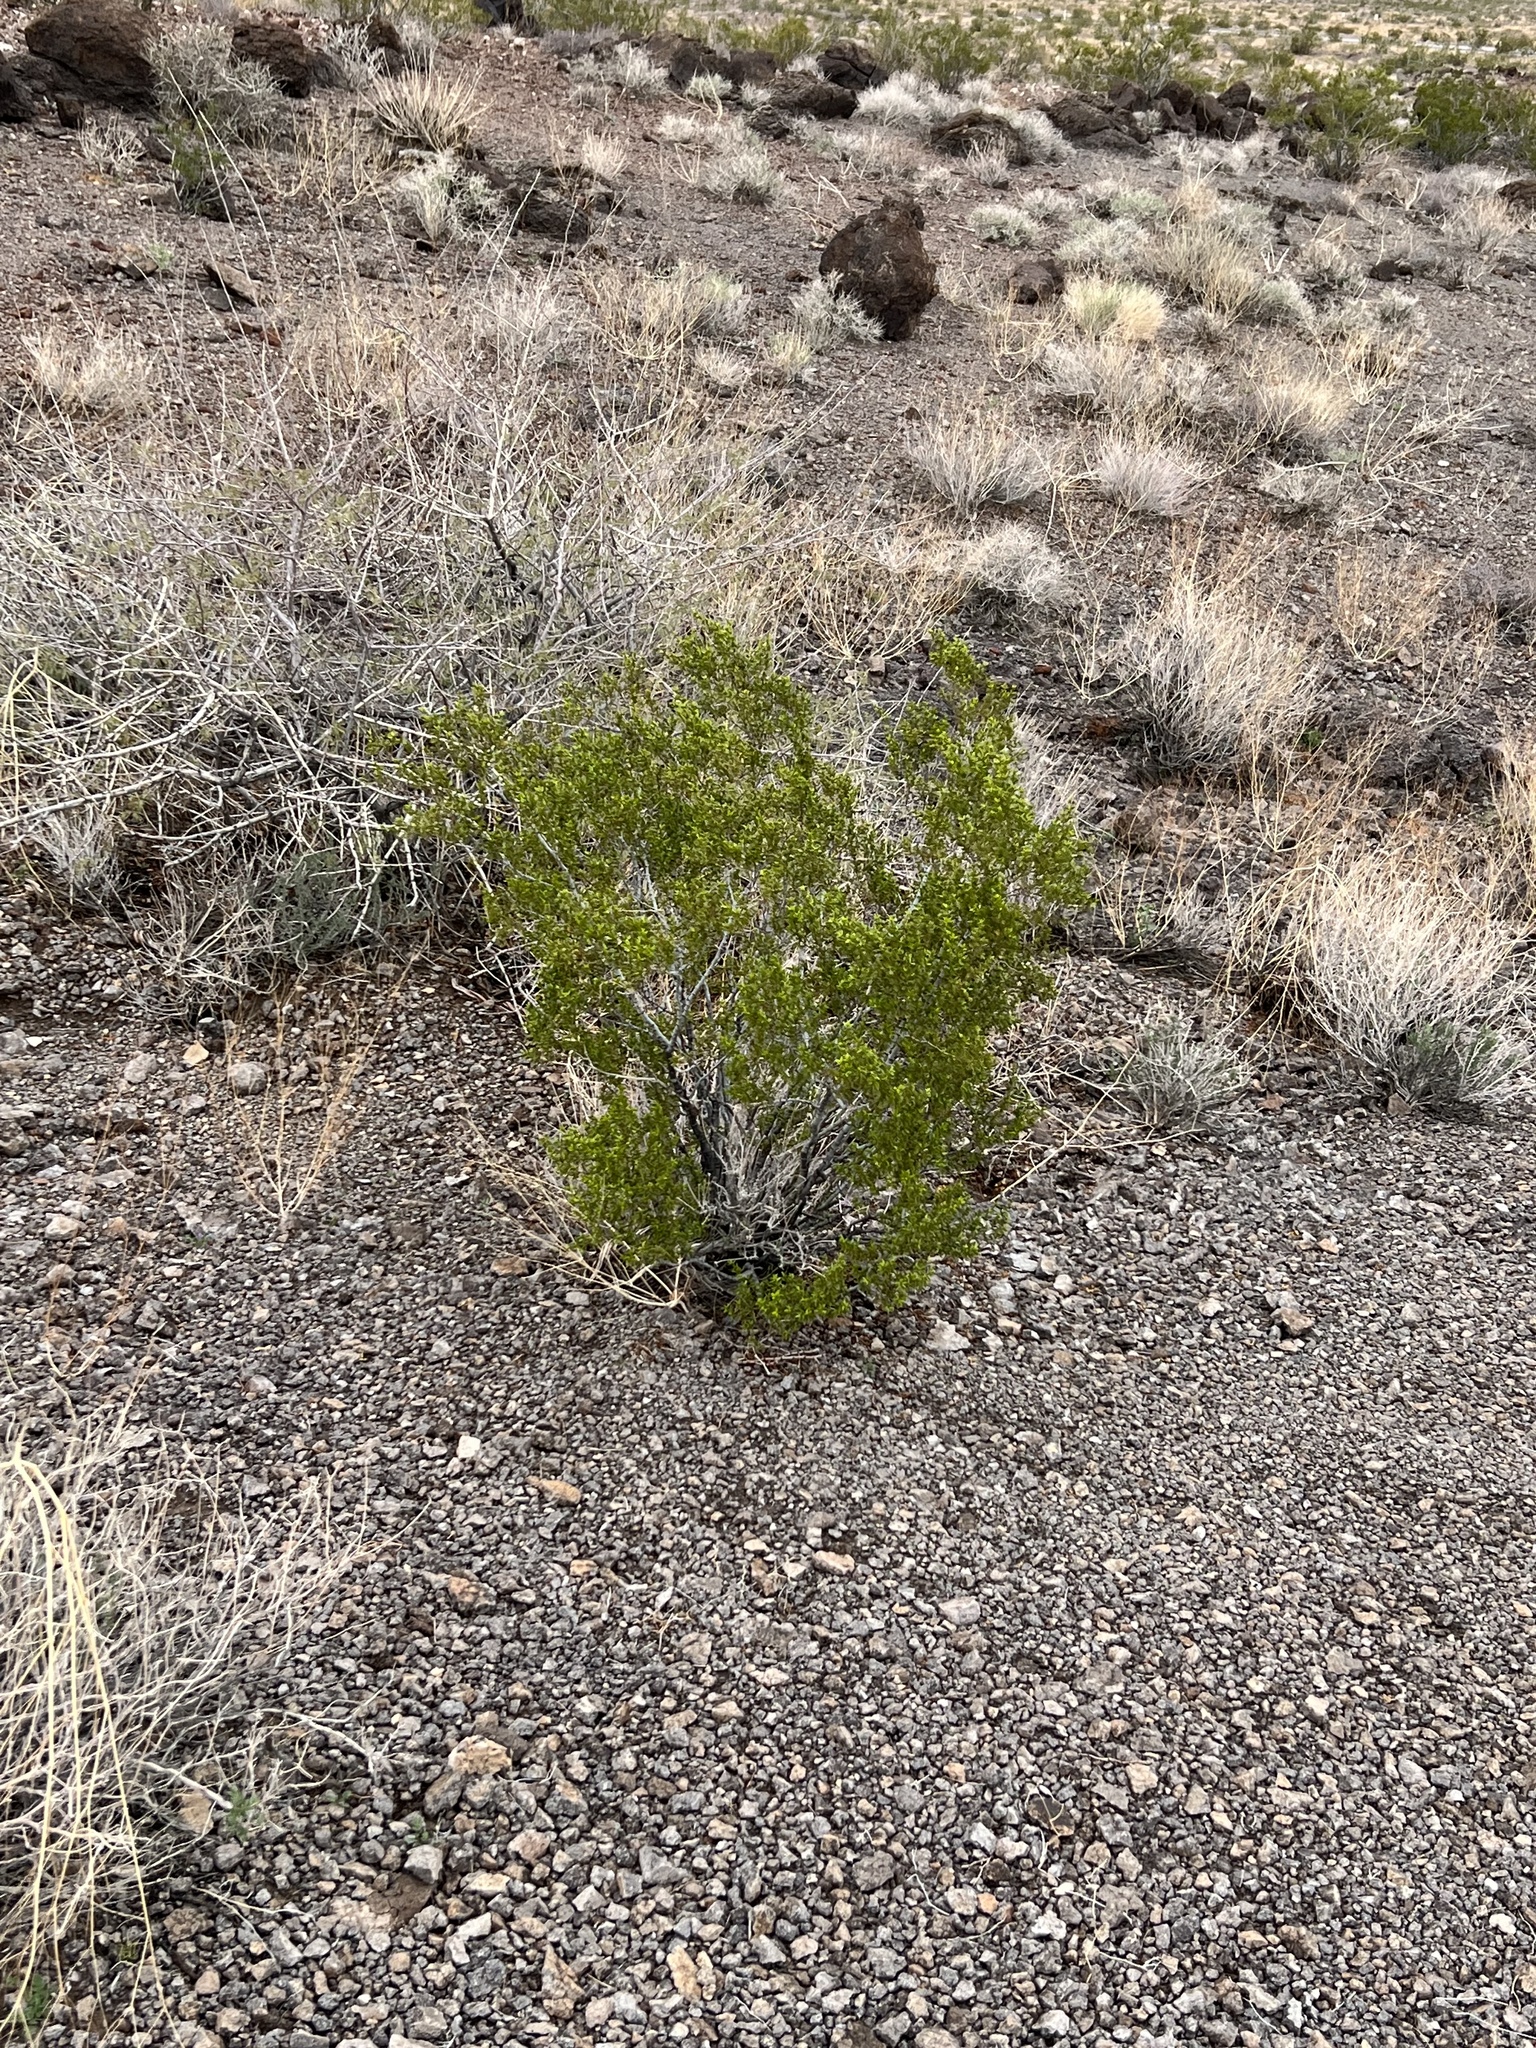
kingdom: Plantae
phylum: Tracheophyta
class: Magnoliopsida
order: Zygophyllales
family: Zygophyllaceae
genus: Larrea
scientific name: Larrea tridentata
